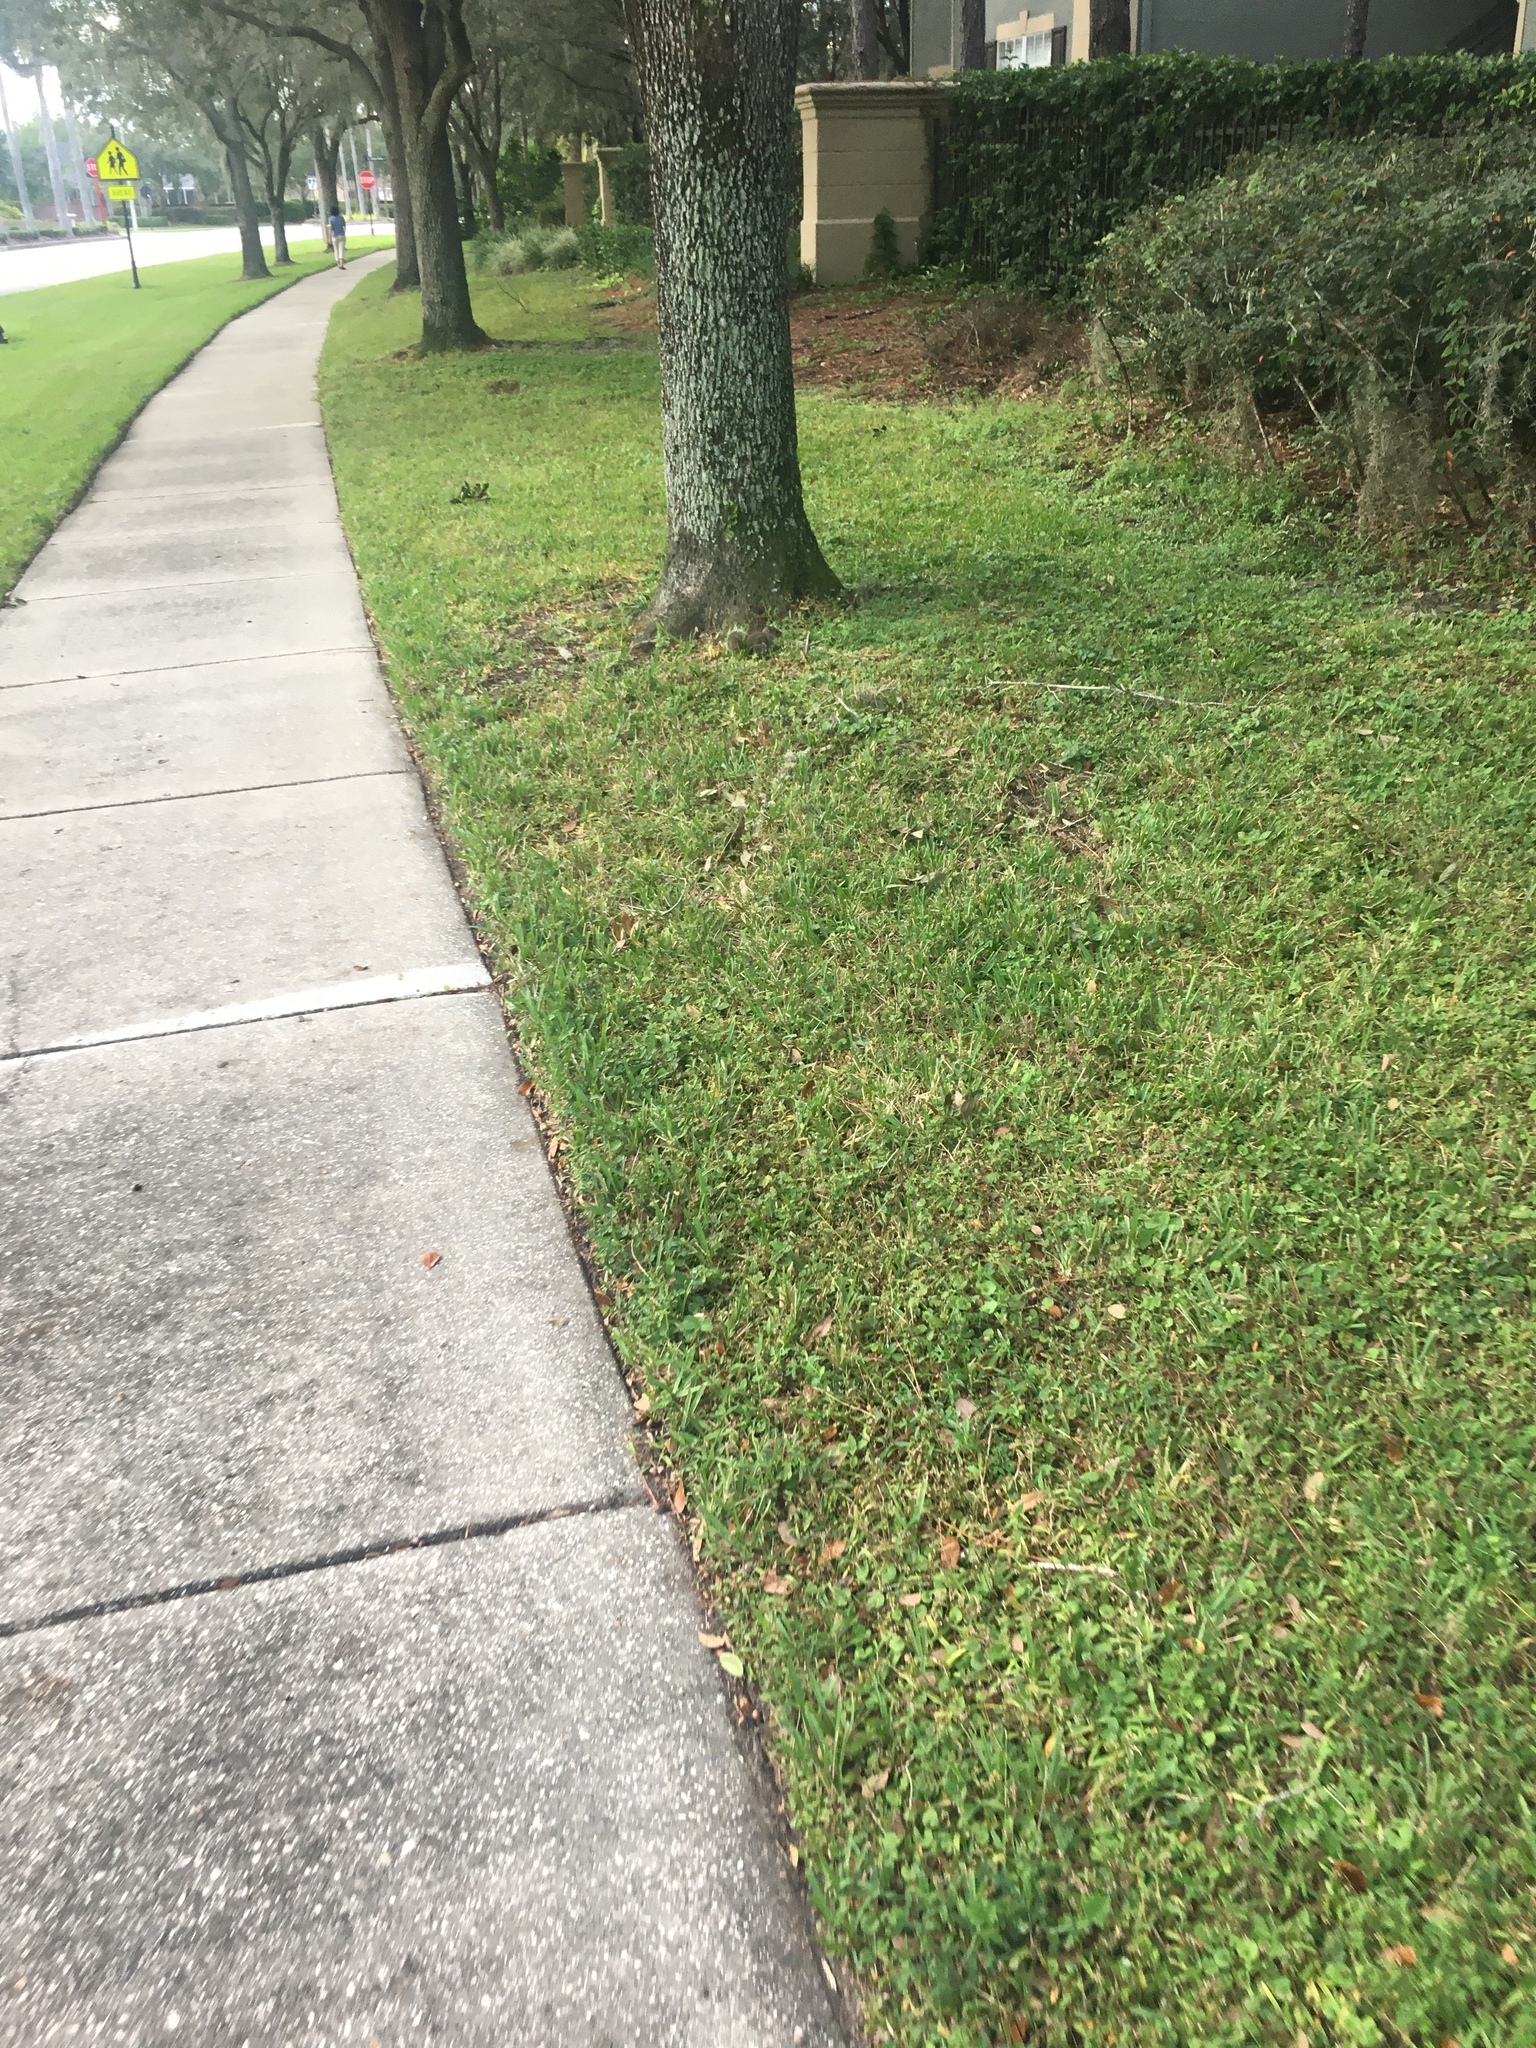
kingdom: Animalia
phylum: Chordata
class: Mammalia
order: Rodentia
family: Sciuridae
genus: Sciurus
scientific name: Sciurus carolinensis
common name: Eastern gray squirrel
